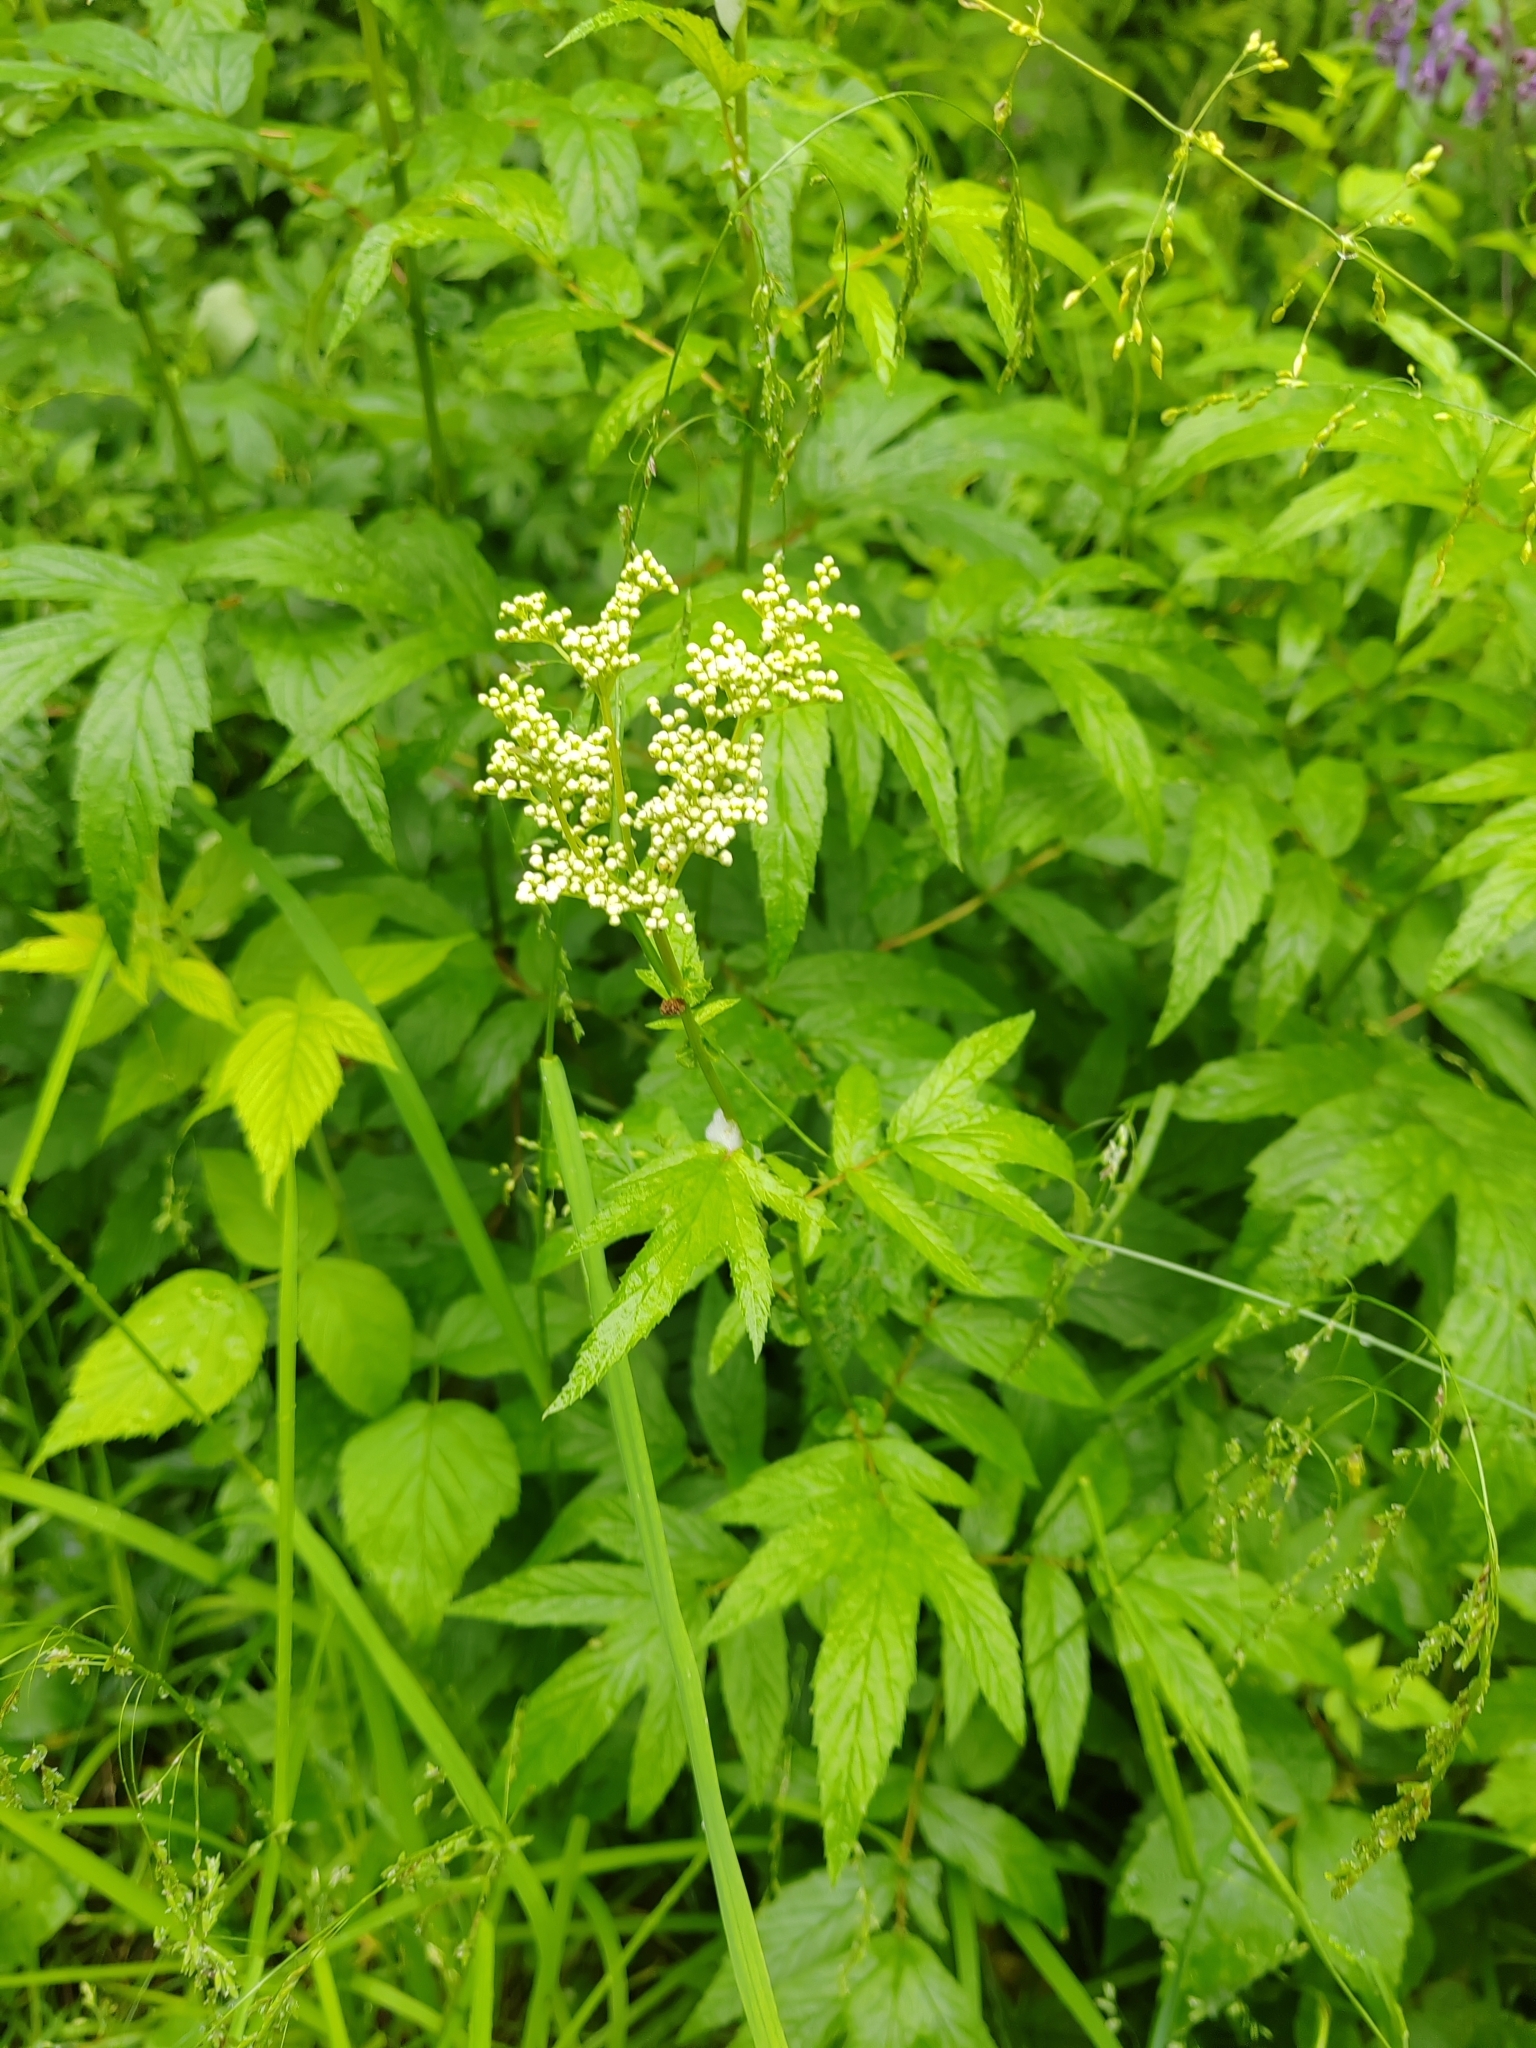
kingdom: Plantae
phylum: Tracheophyta
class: Magnoliopsida
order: Rosales
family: Rosaceae
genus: Filipendula
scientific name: Filipendula ulmaria
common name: Meadowsweet
